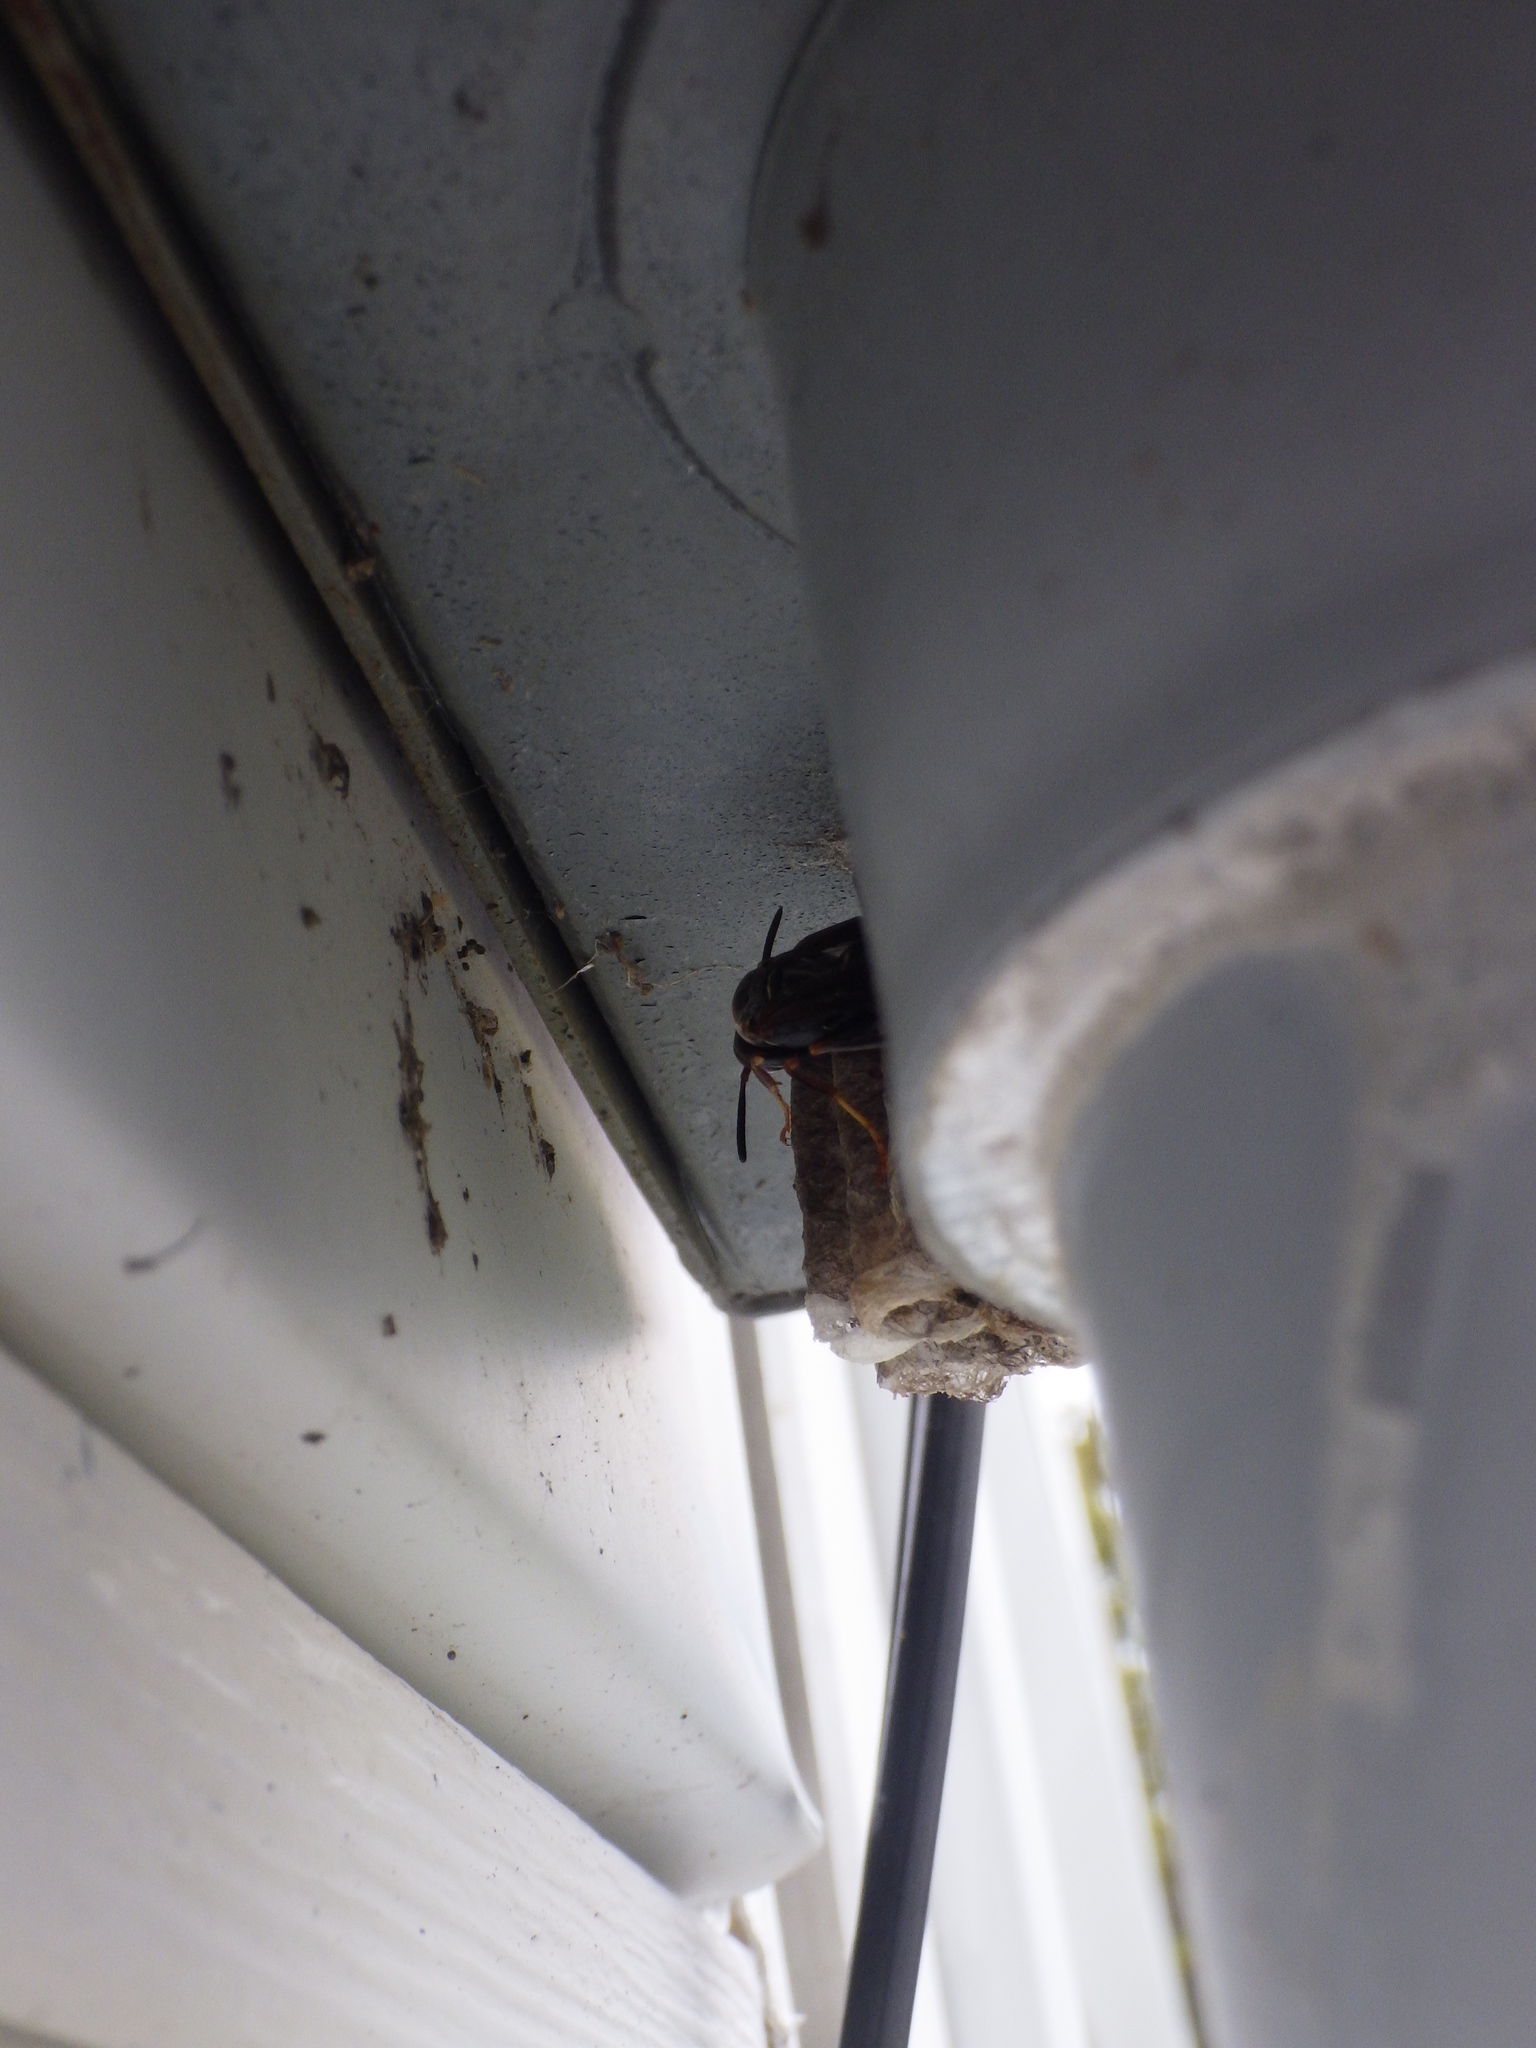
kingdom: Animalia
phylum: Arthropoda
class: Insecta
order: Hymenoptera
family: Eumenidae
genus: Polistes
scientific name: Polistes fuscatus
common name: Dark paper wasp
